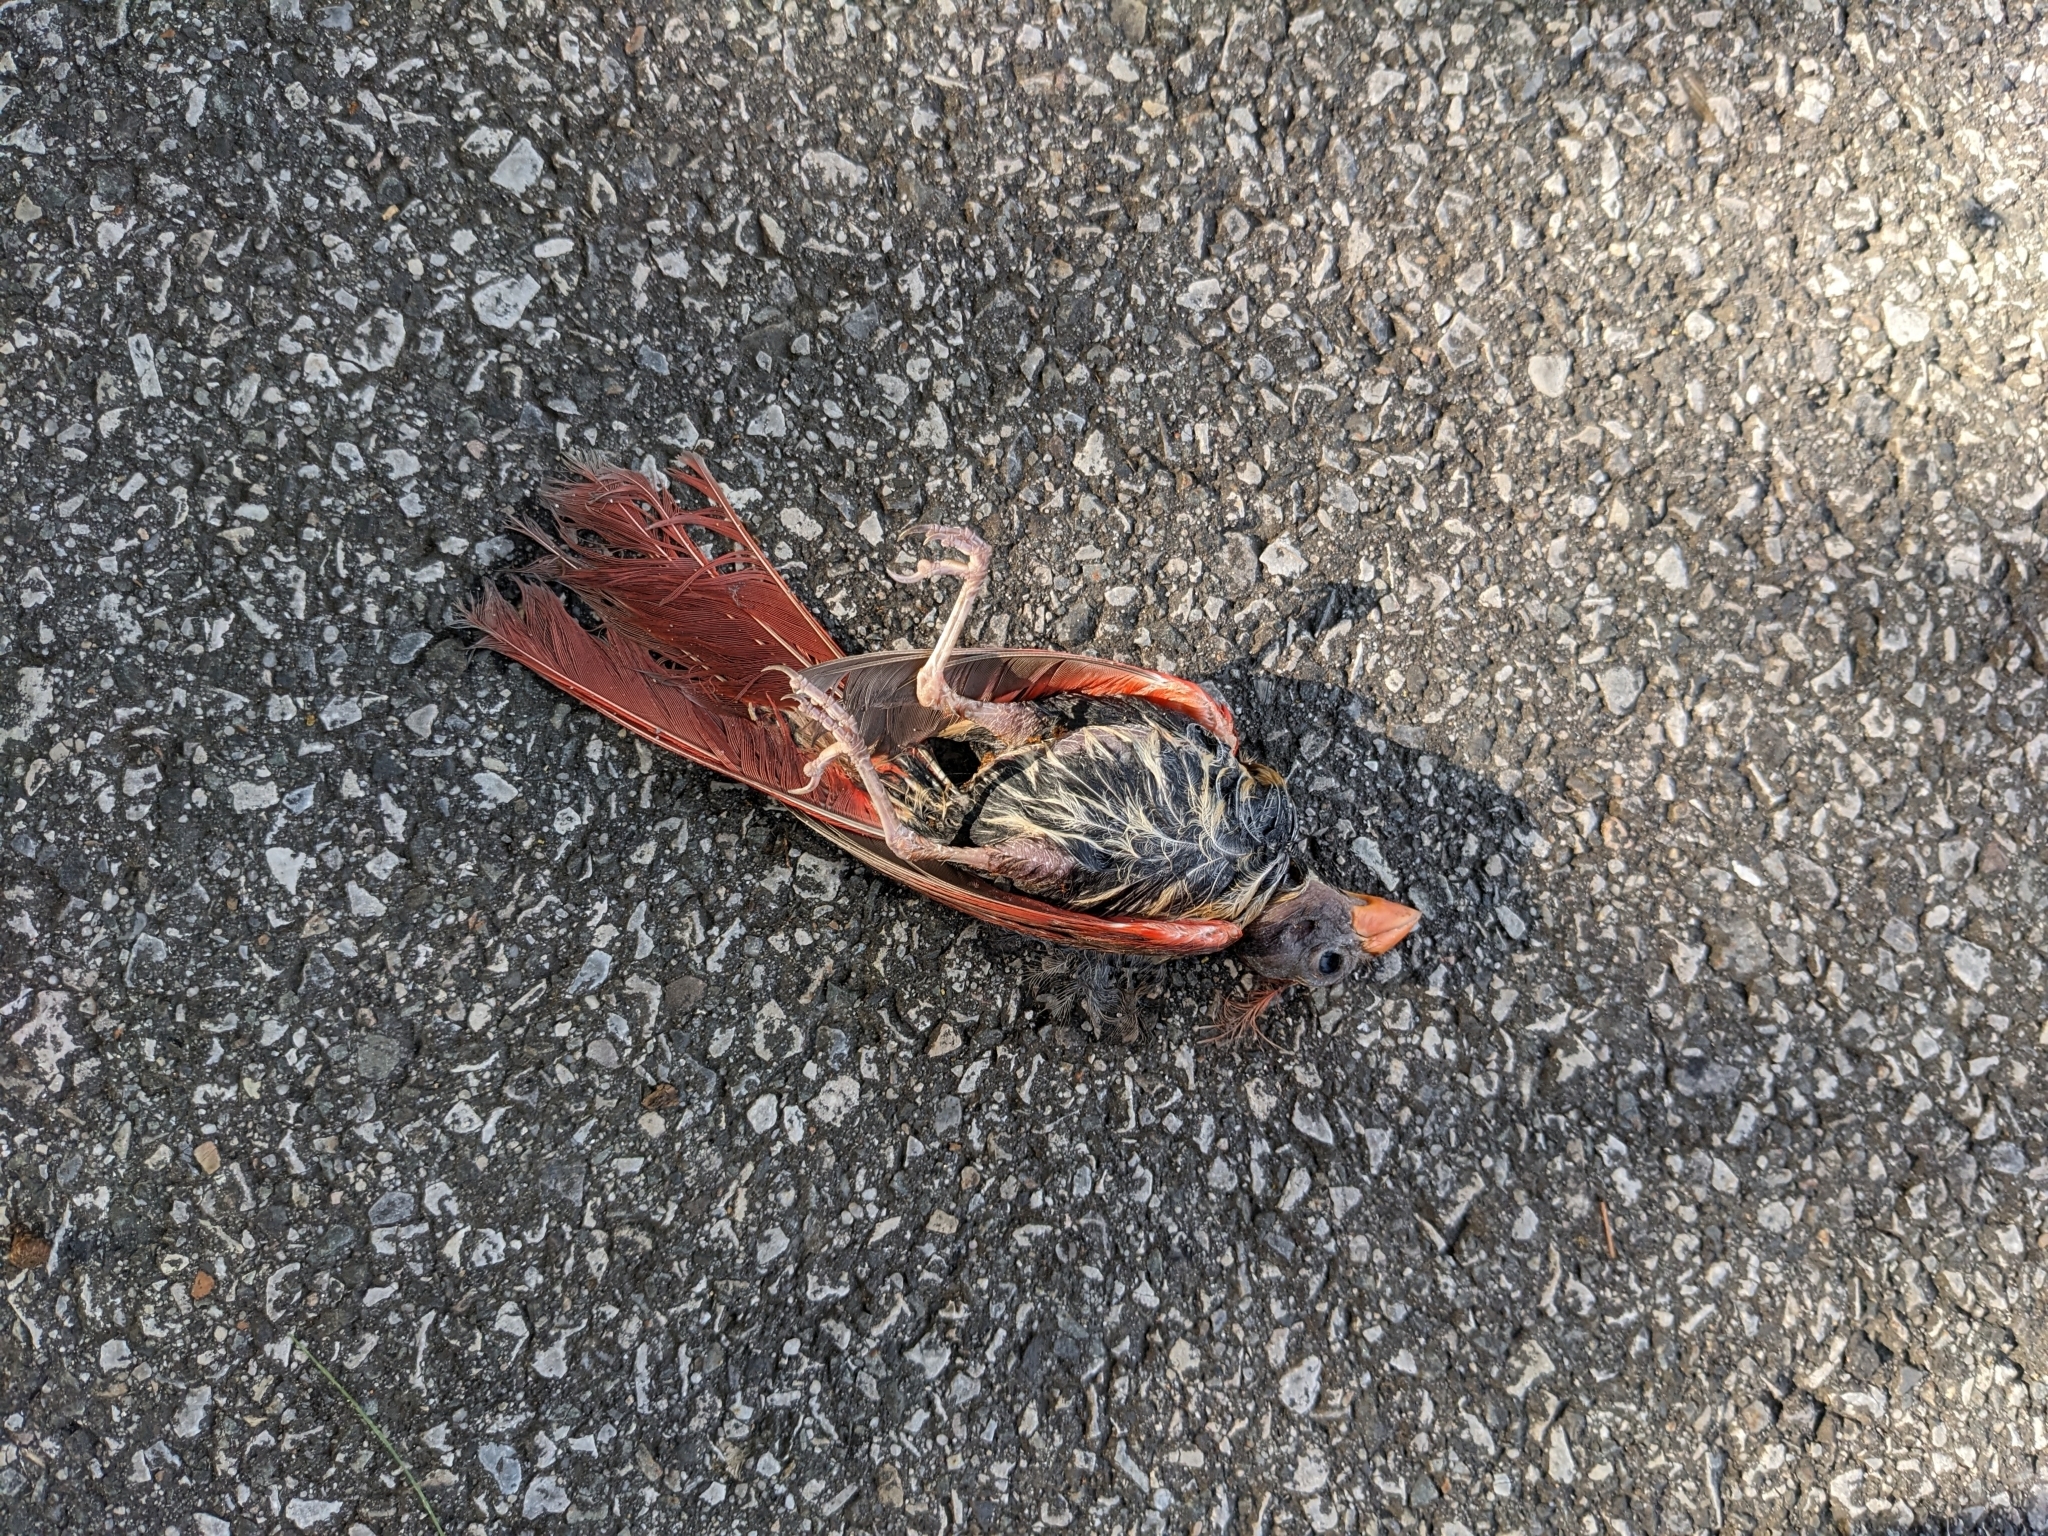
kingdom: Animalia
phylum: Chordata
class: Aves
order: Passeriformes
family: Cardinalidae
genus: Cardinalis
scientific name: Cardinalis cardinalis
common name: Northern cardinal
